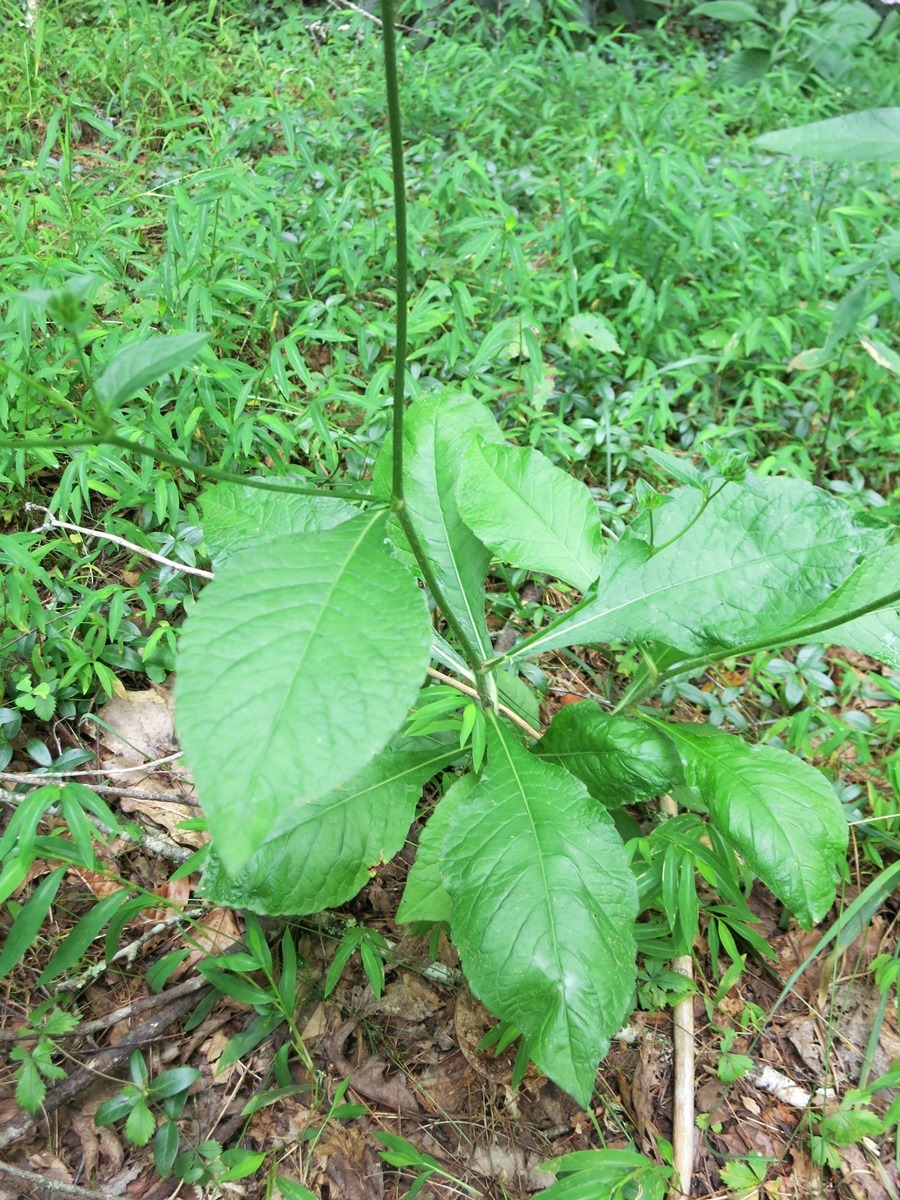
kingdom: Plantae
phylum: Tracheophyta
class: Magnoliopsida
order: Asterales
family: Asteraceae
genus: Elephantopus
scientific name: Elephantopus carolinianus
